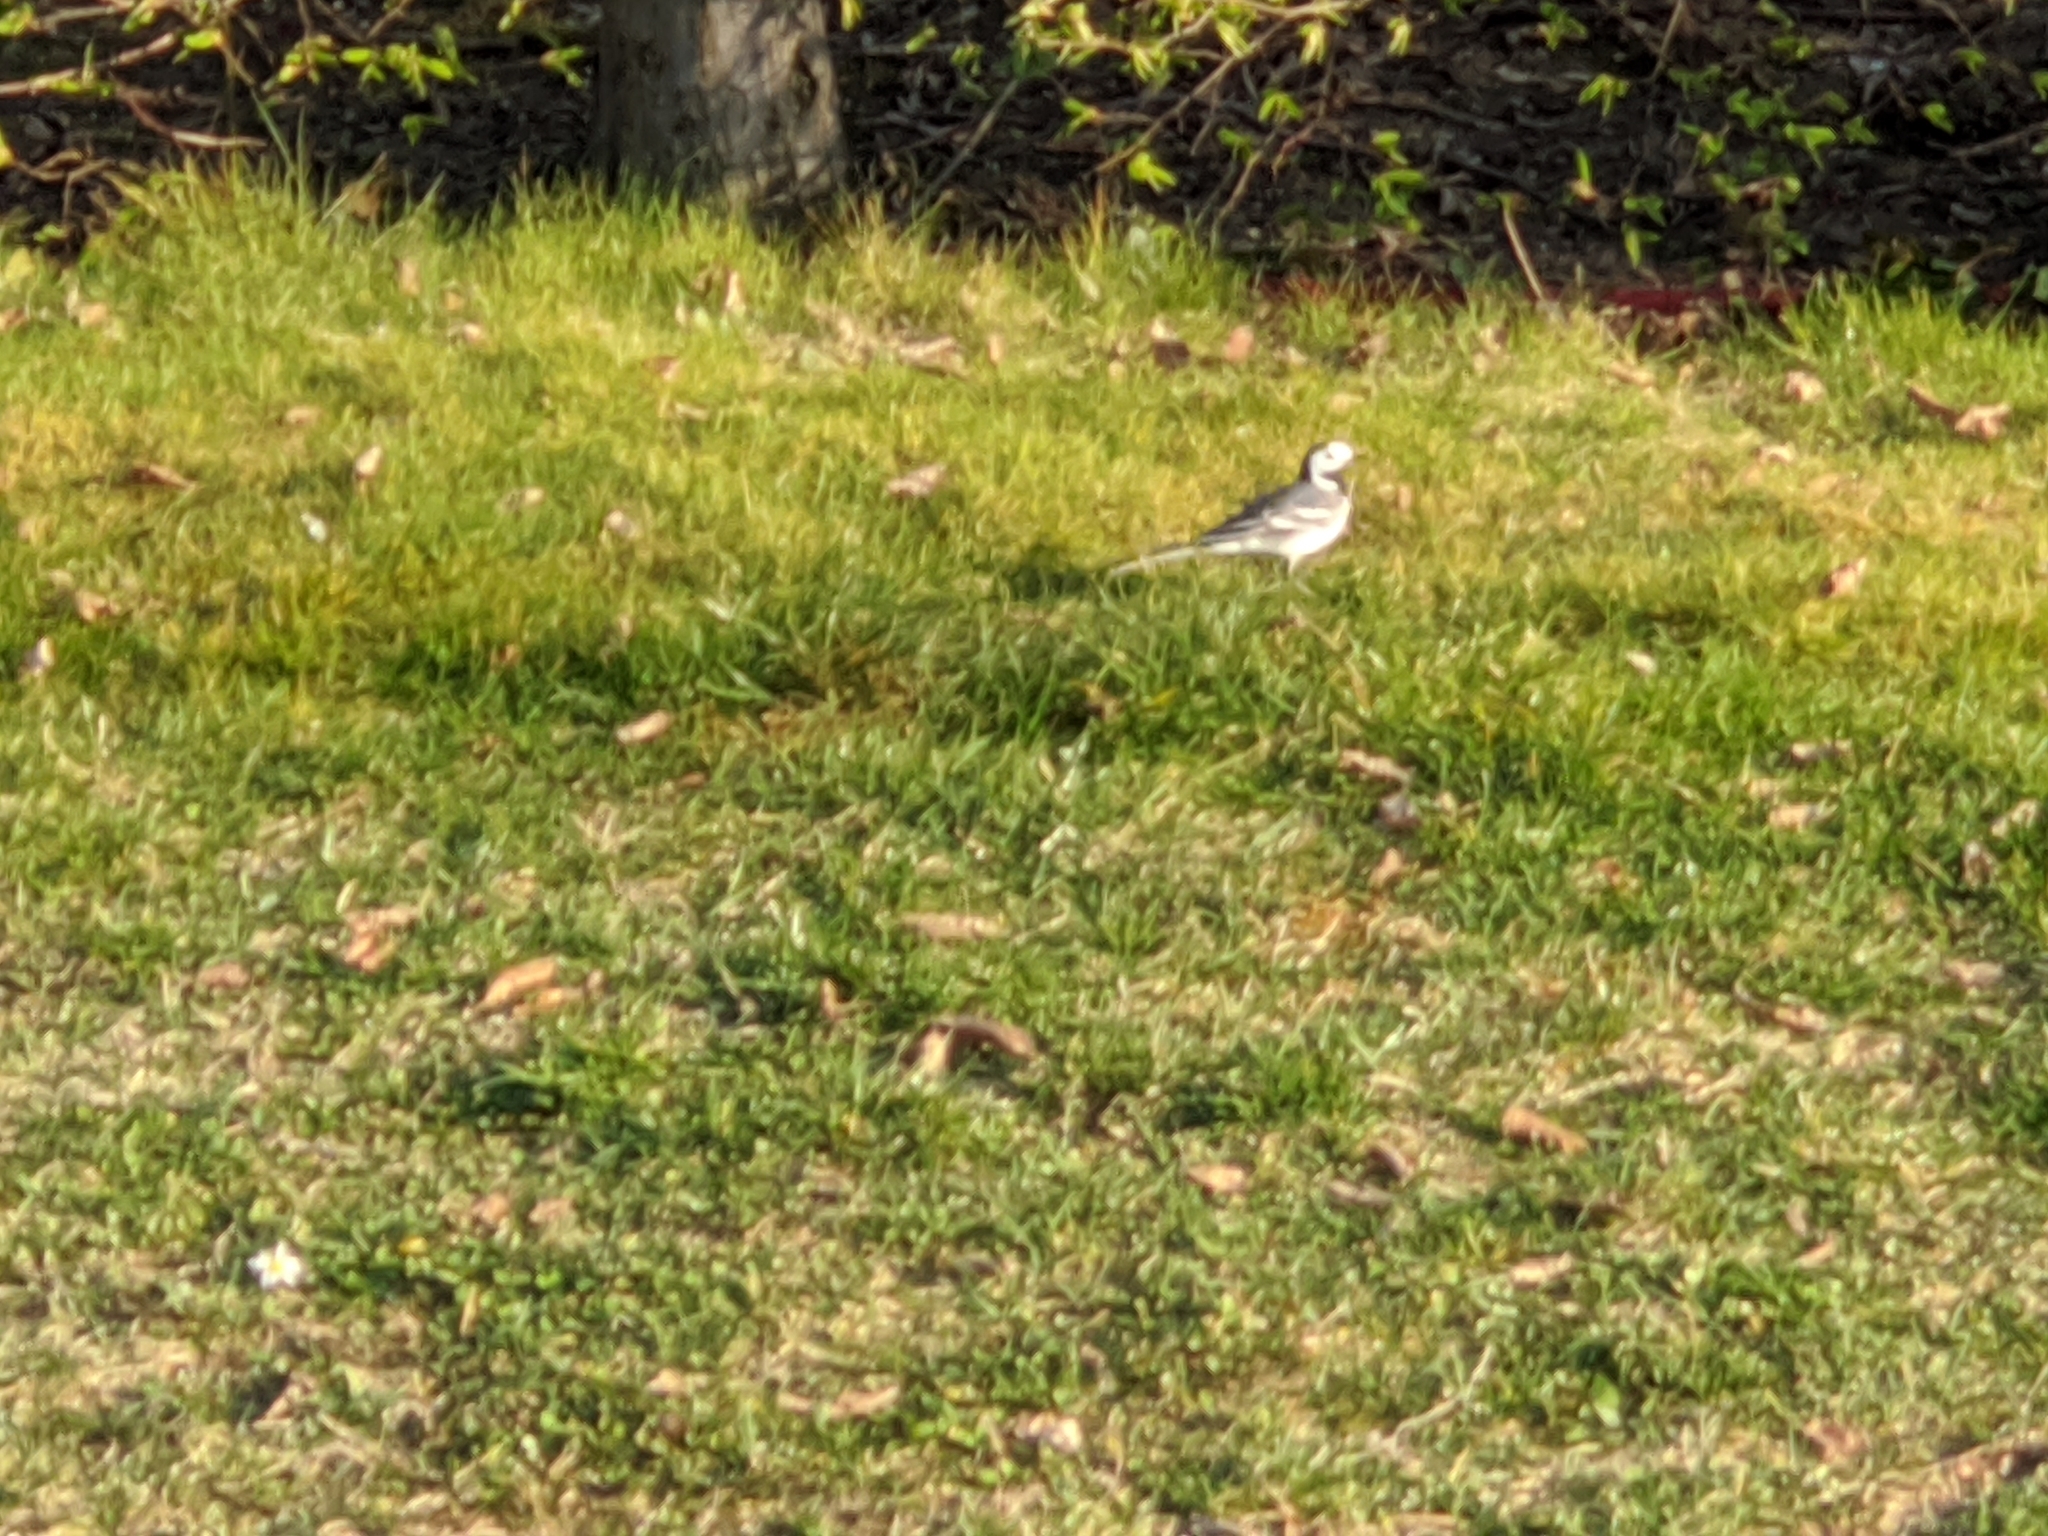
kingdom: Animalia
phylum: Chordata
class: Aves
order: Passeriformes
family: Motacillidae
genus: Motacilla
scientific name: Motacilla alba
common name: White wagtail
